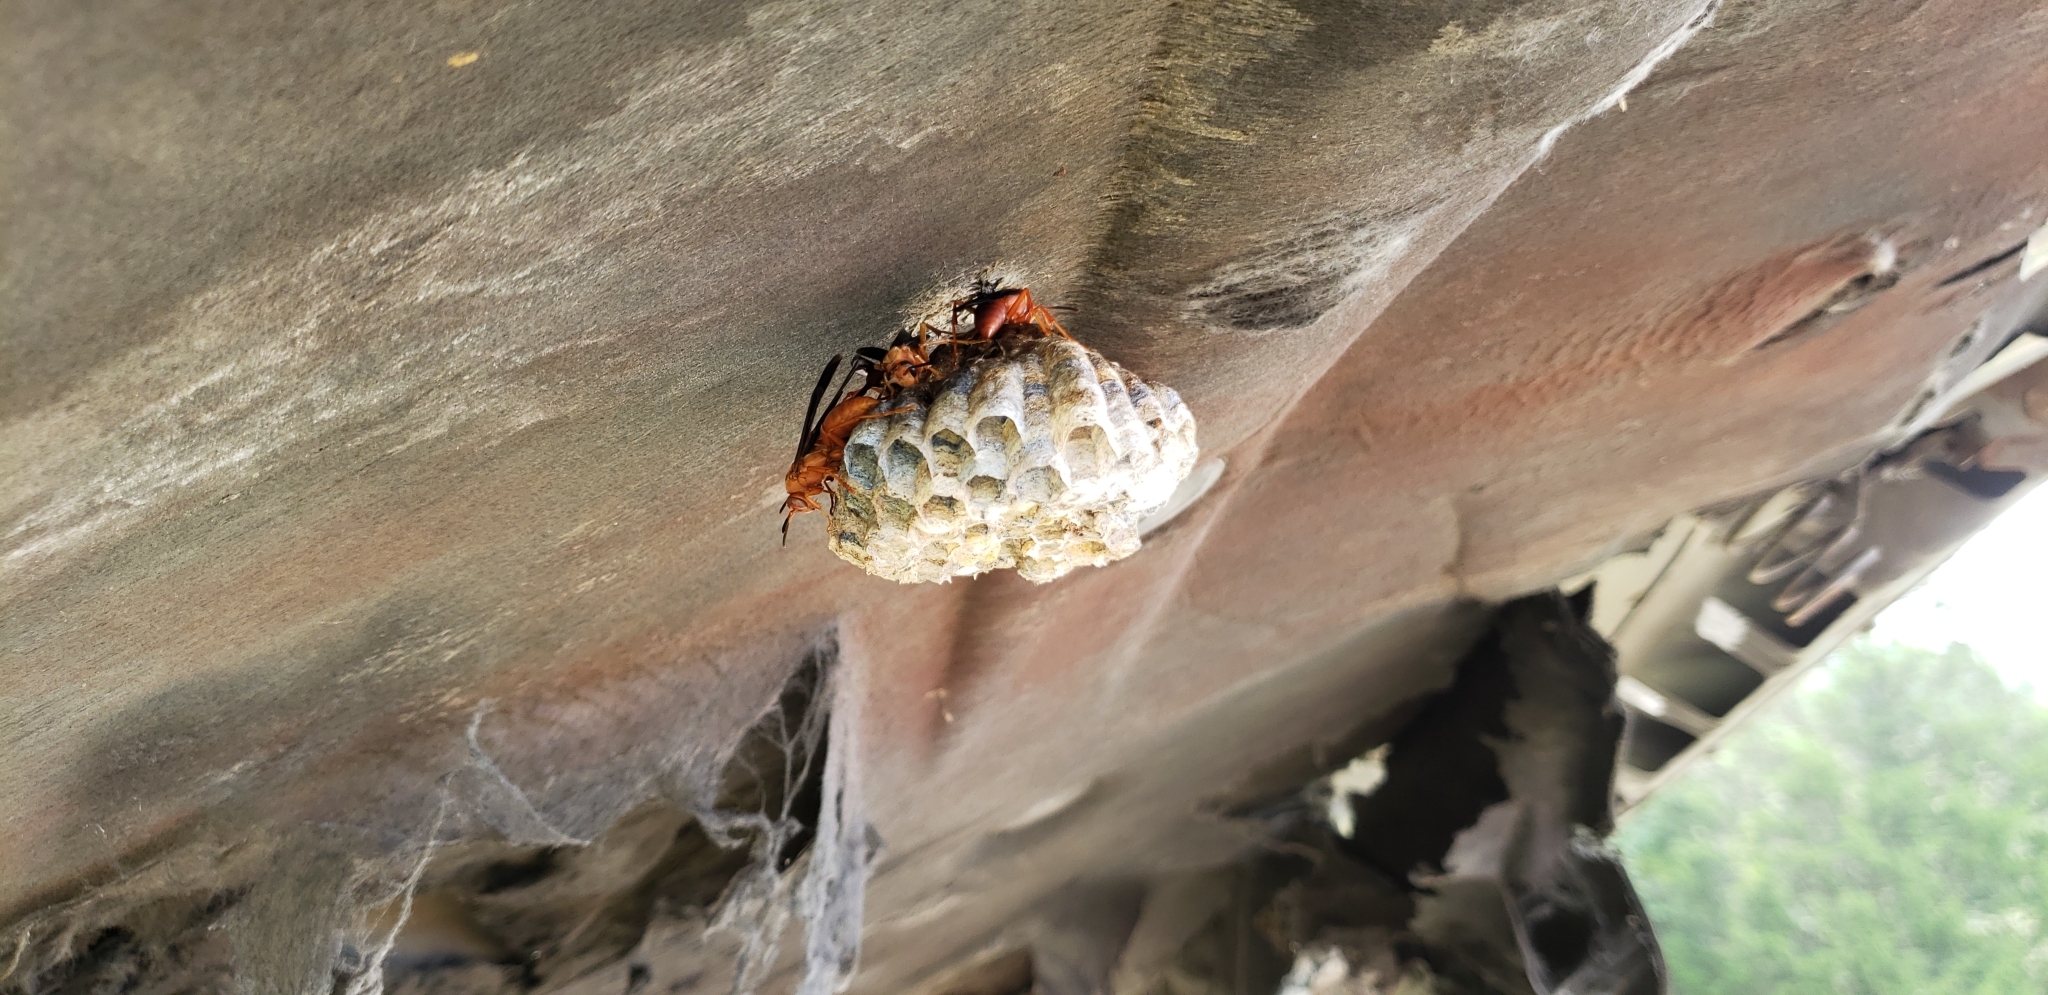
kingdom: Animalia
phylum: Arthropoda
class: Insecta
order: Hymenoptera
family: Eumenidae
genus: Polistes
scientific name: Polistes
